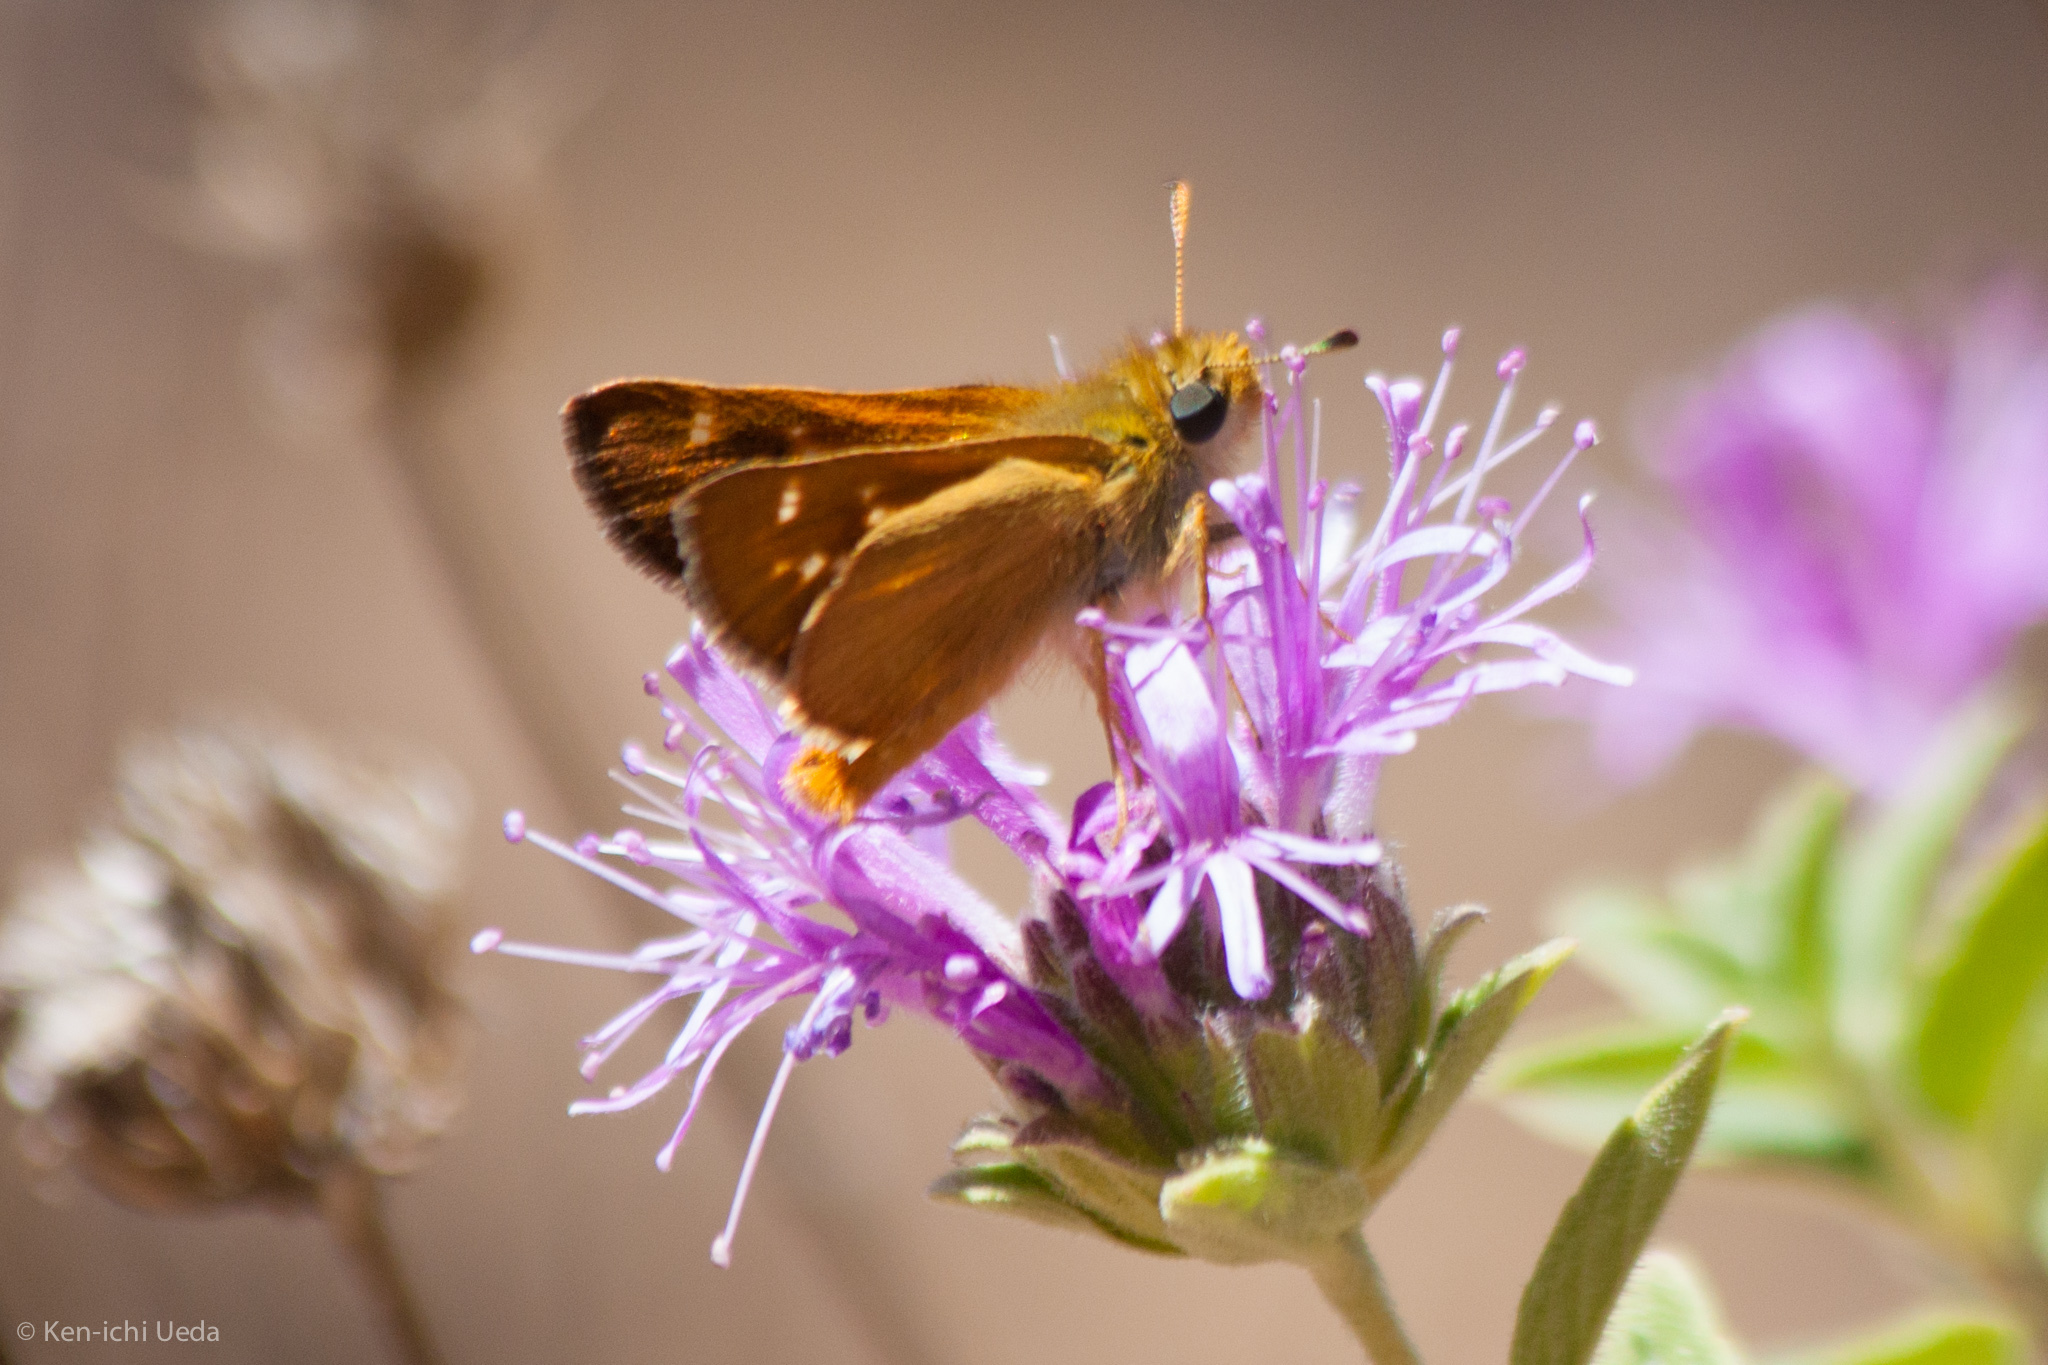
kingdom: Animalia
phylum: Arthropoda
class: Insecta
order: Lepidoptera
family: Hesperiidae
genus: Ochlodes
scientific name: Ochlodes agricola
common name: Rural skipper
